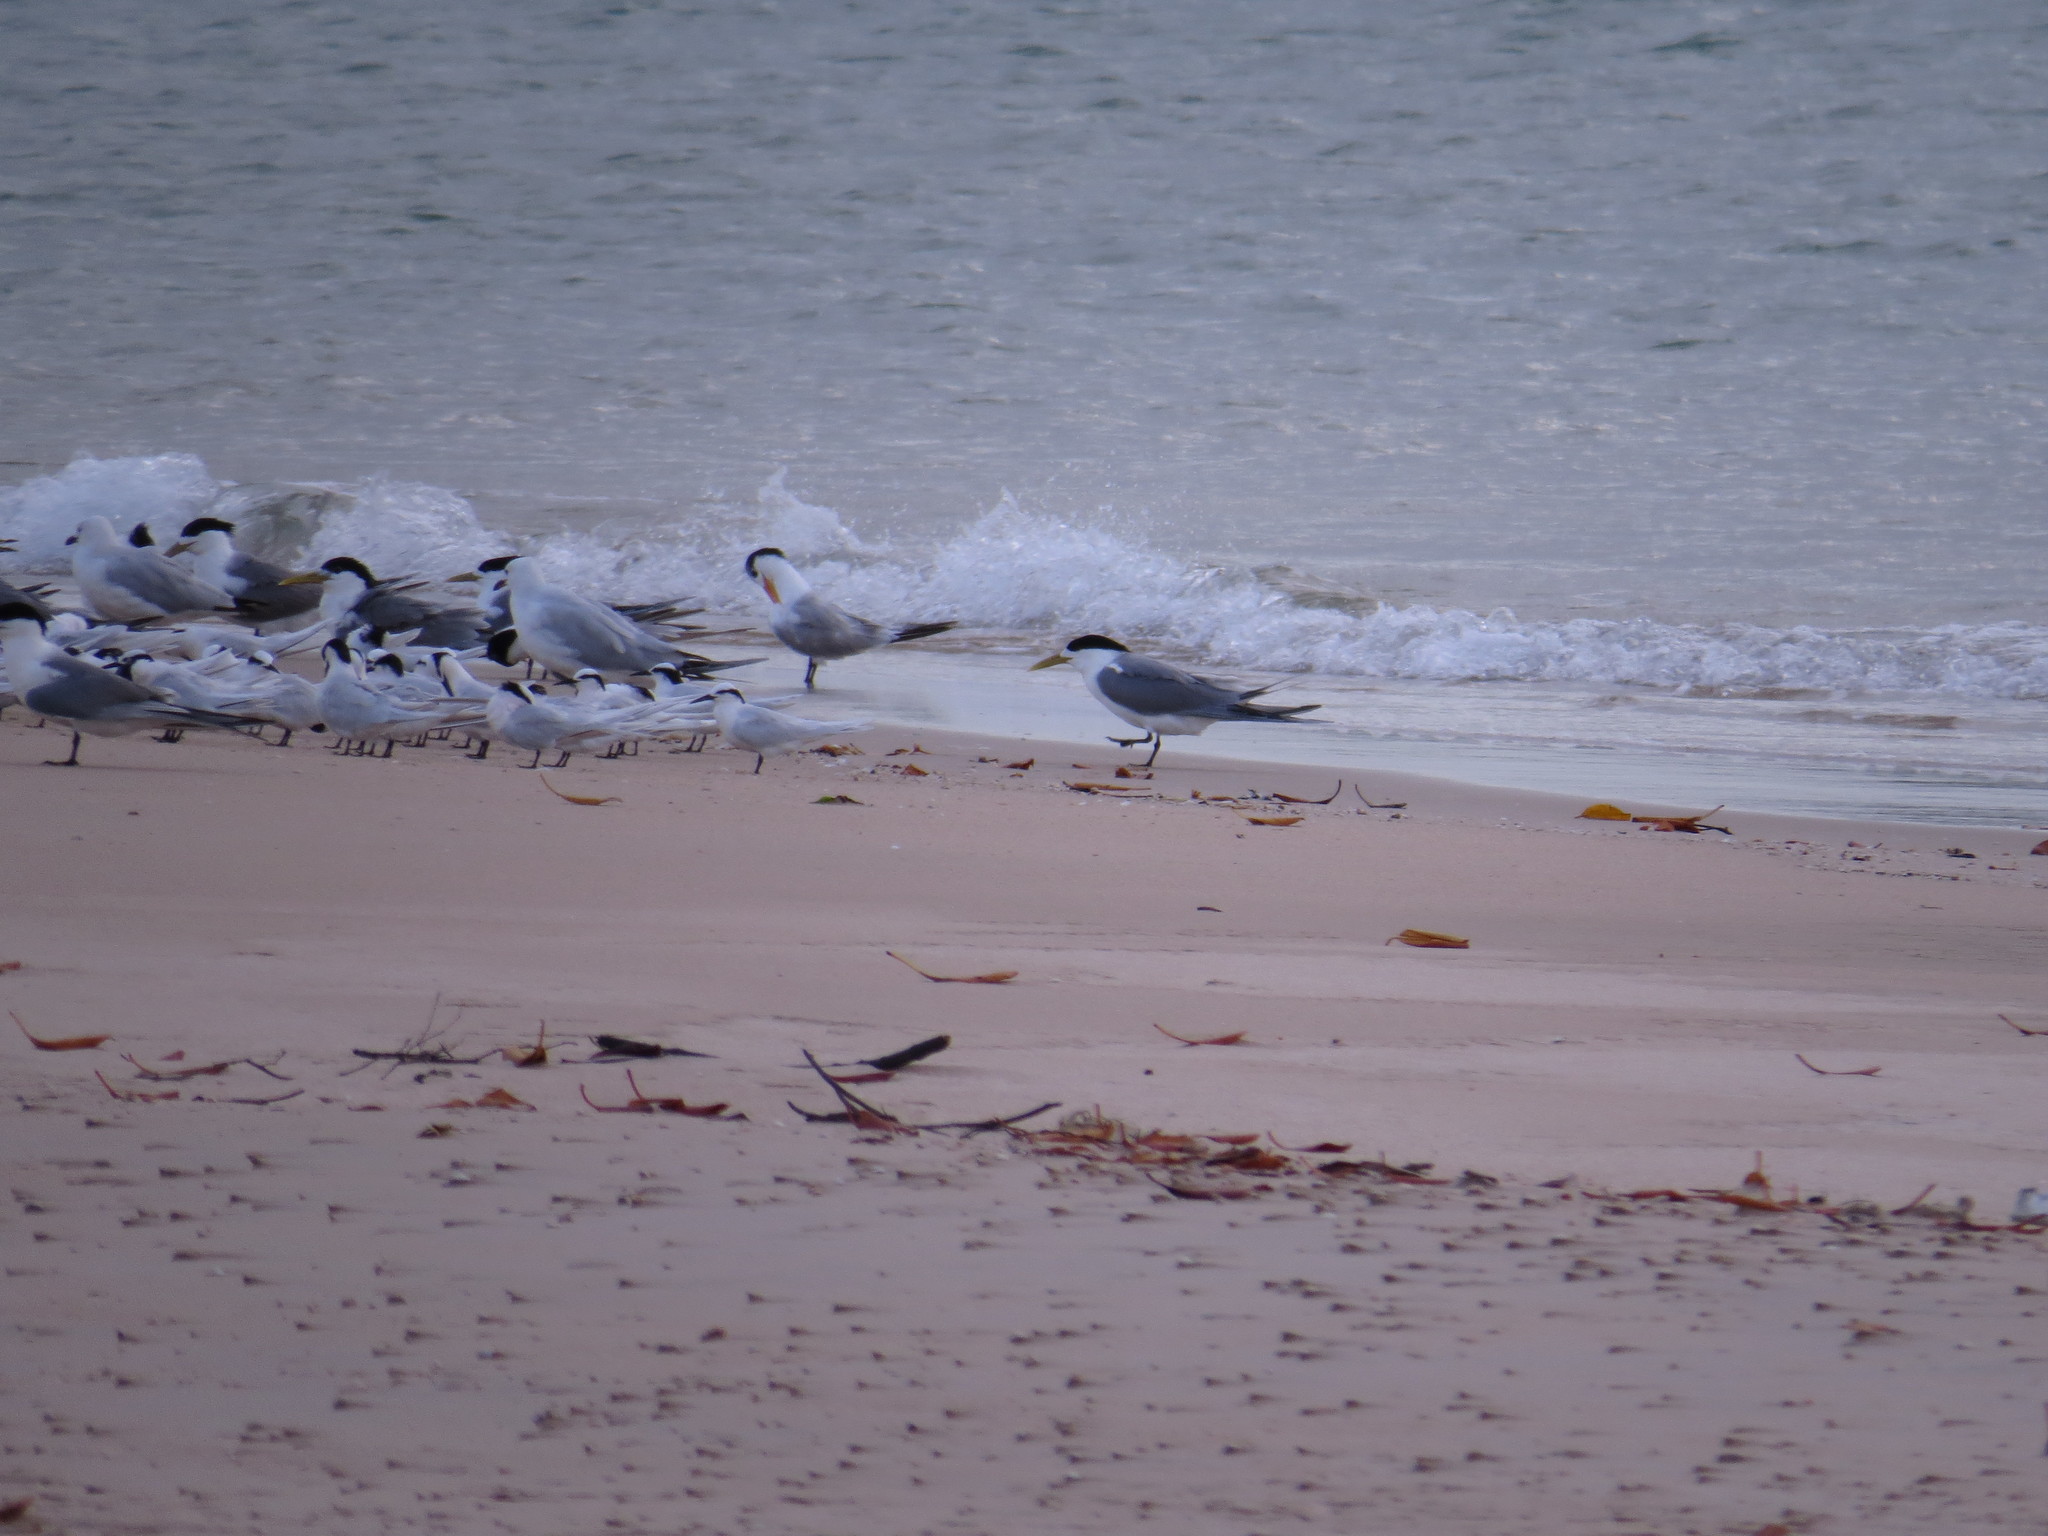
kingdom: Animalia
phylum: Chordata
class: Aves
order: Charadriiformes
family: Laridae
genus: Sternula
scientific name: Sternula albifrons
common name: Little tern
